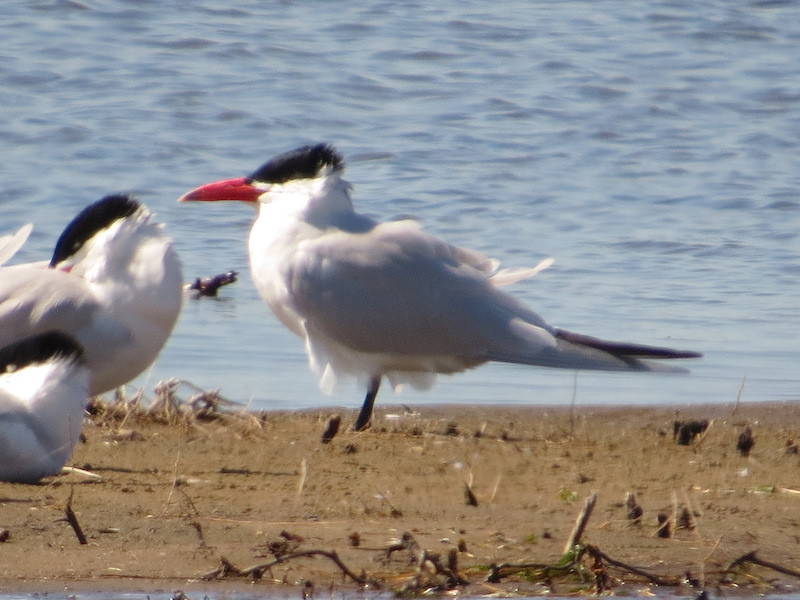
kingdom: Animalia
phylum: Chordata
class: Aves
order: Charadriiformes
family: Laridae
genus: Hydroprogne
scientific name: Hydroprogne caspia
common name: Caspian tern
